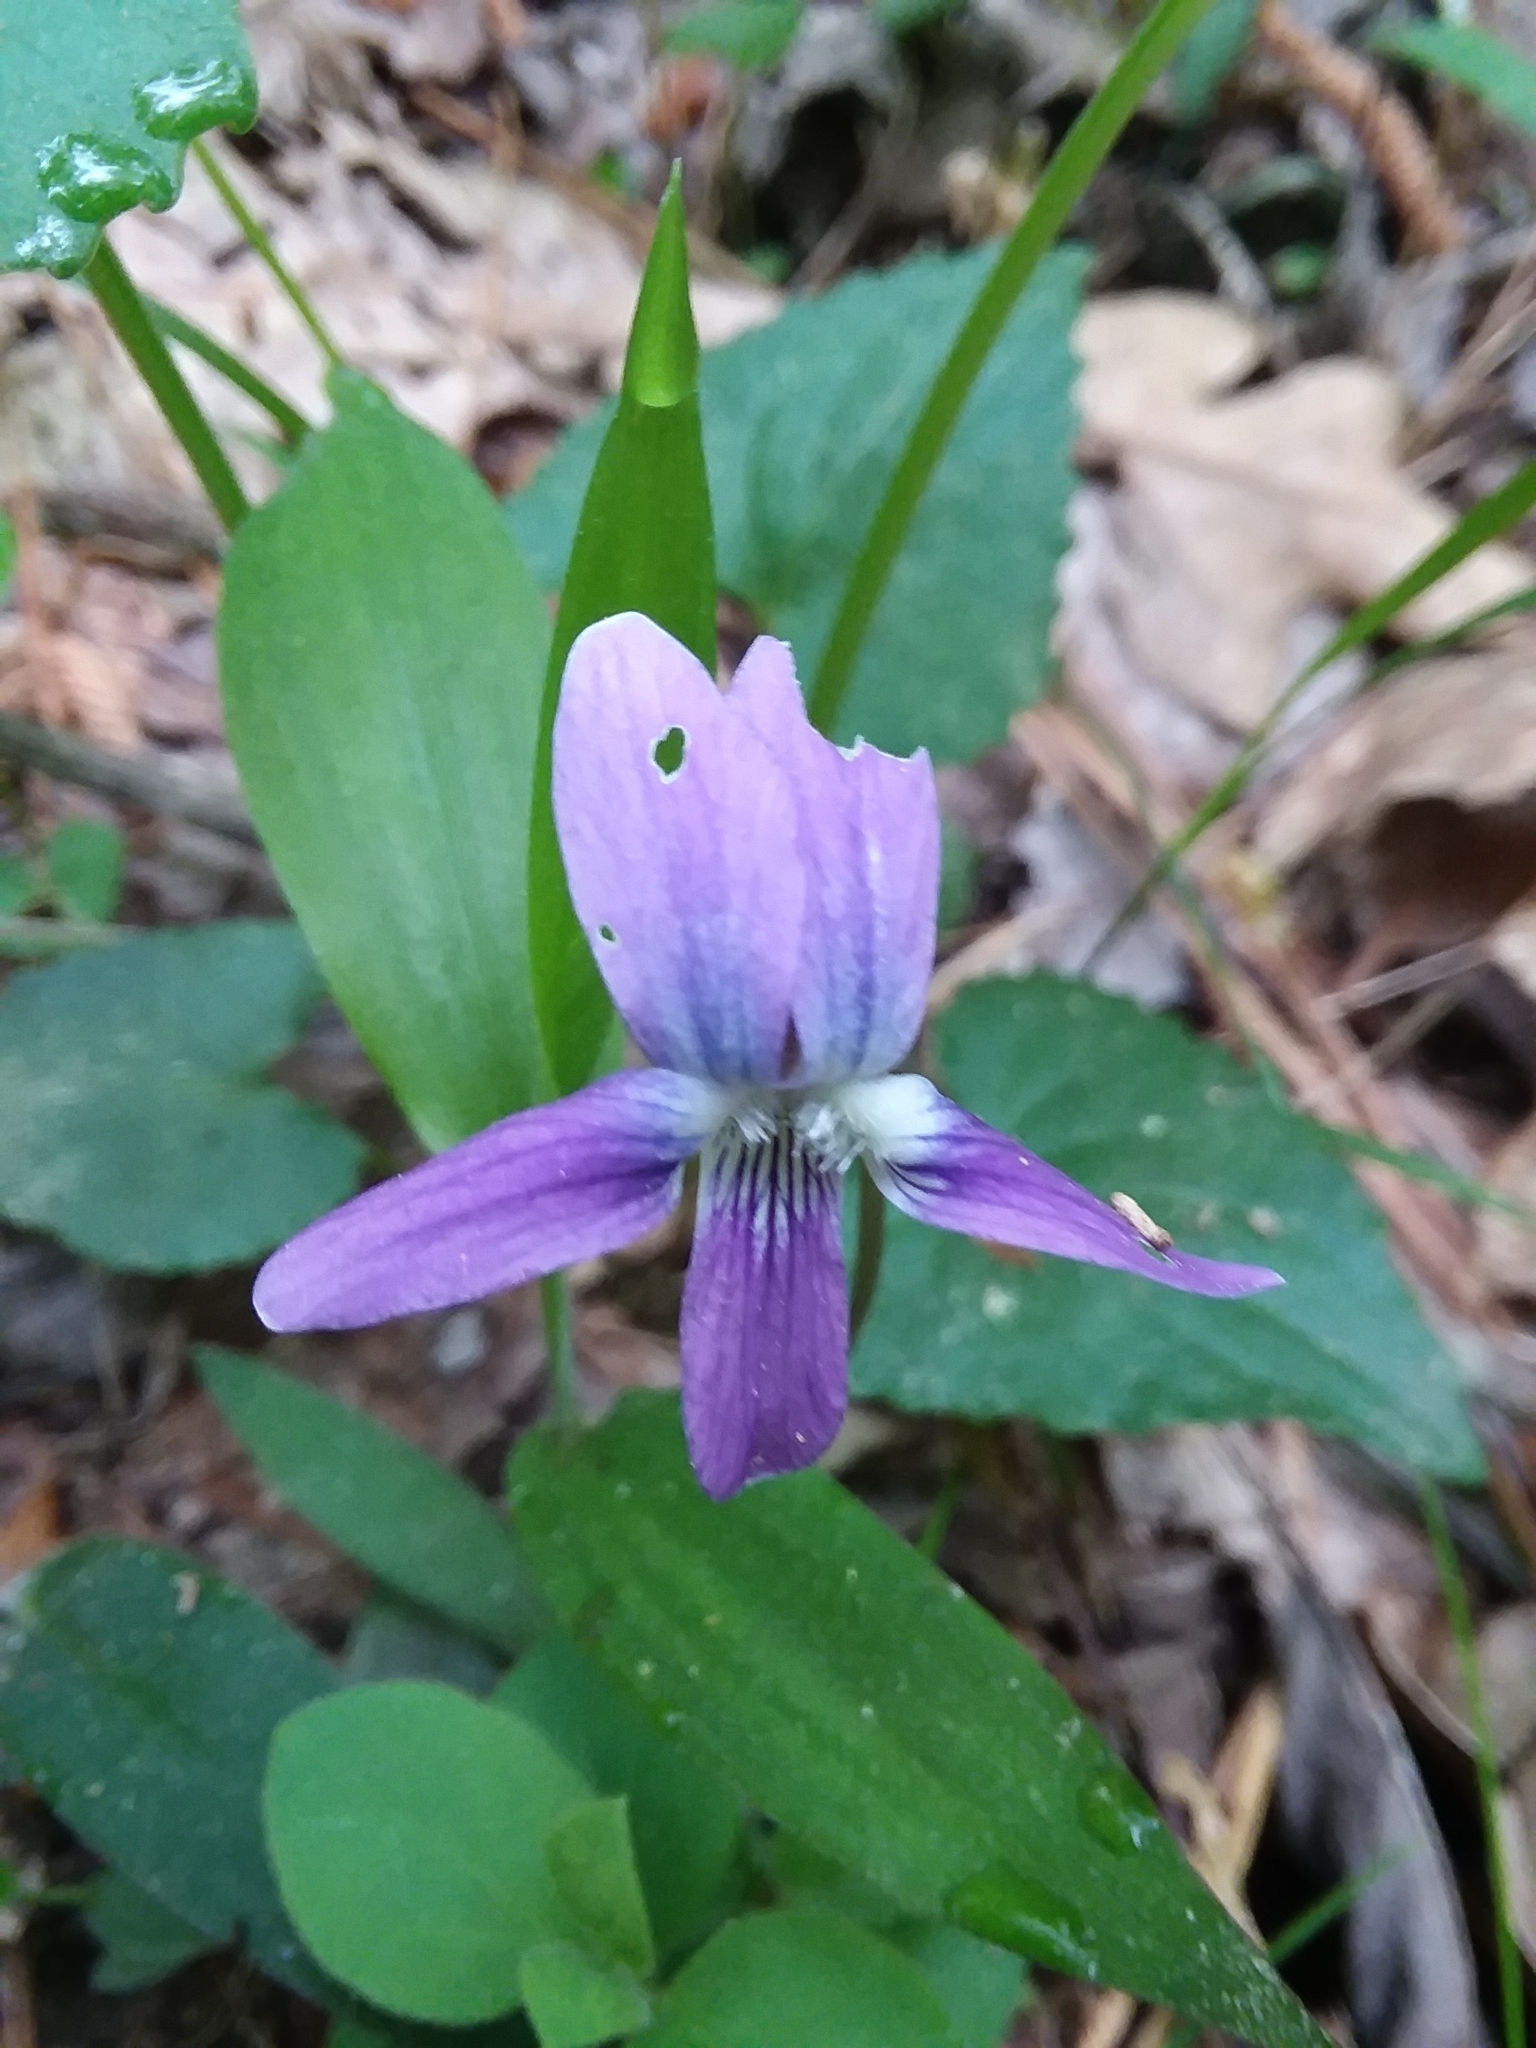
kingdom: Plantae
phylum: Tracheophyta
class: Magnoliopsida
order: Malpighiales
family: Violaceae
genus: Viola
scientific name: Viola sororia
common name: Dooryard violet
